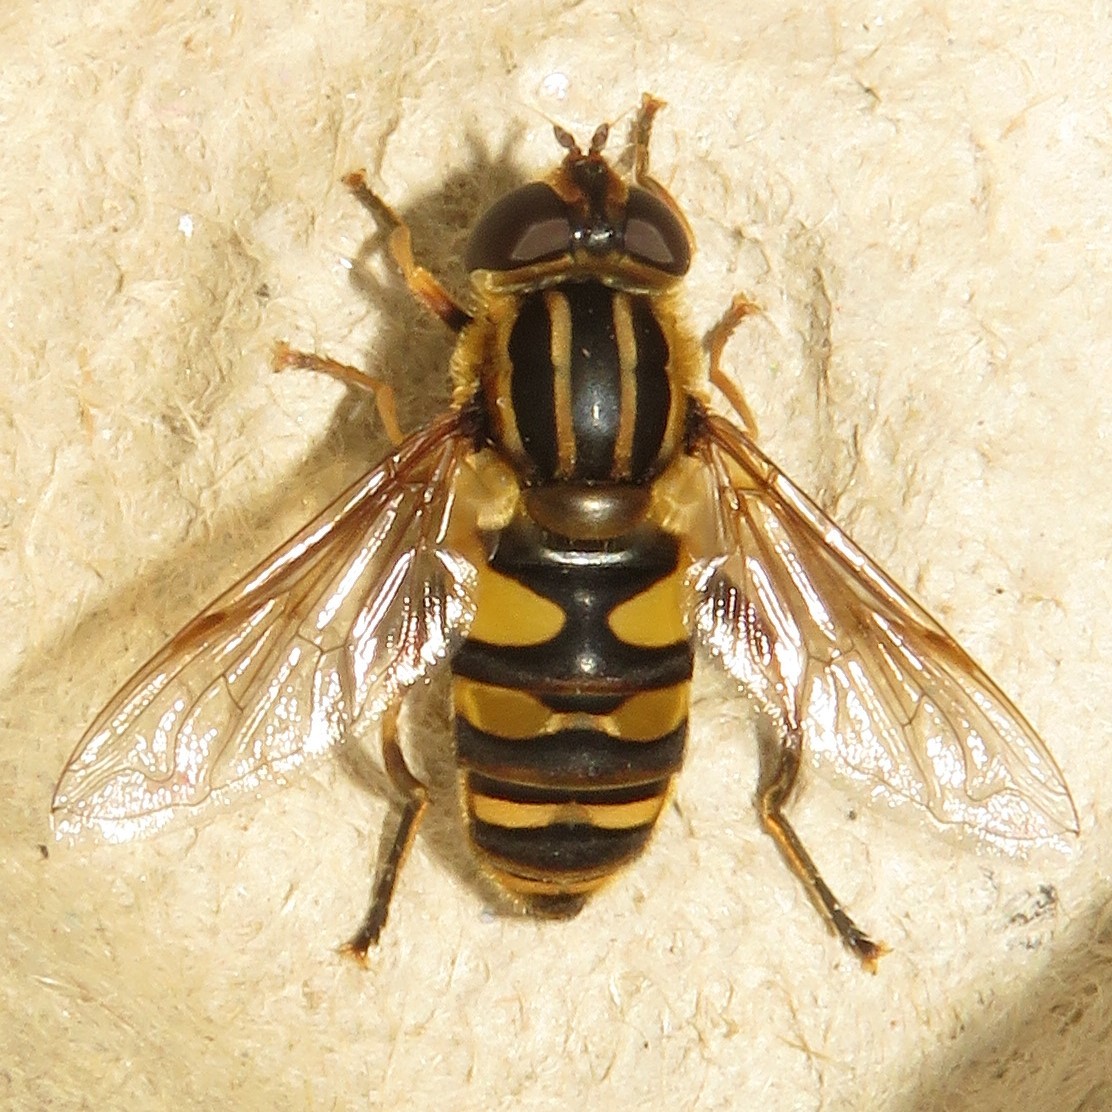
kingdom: Animalia
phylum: Arthropoda
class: Insecta
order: Diptera
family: Syrphidae
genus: Helophilus
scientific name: Helophilus fasciatus
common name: Narrow-headed marsh fly
